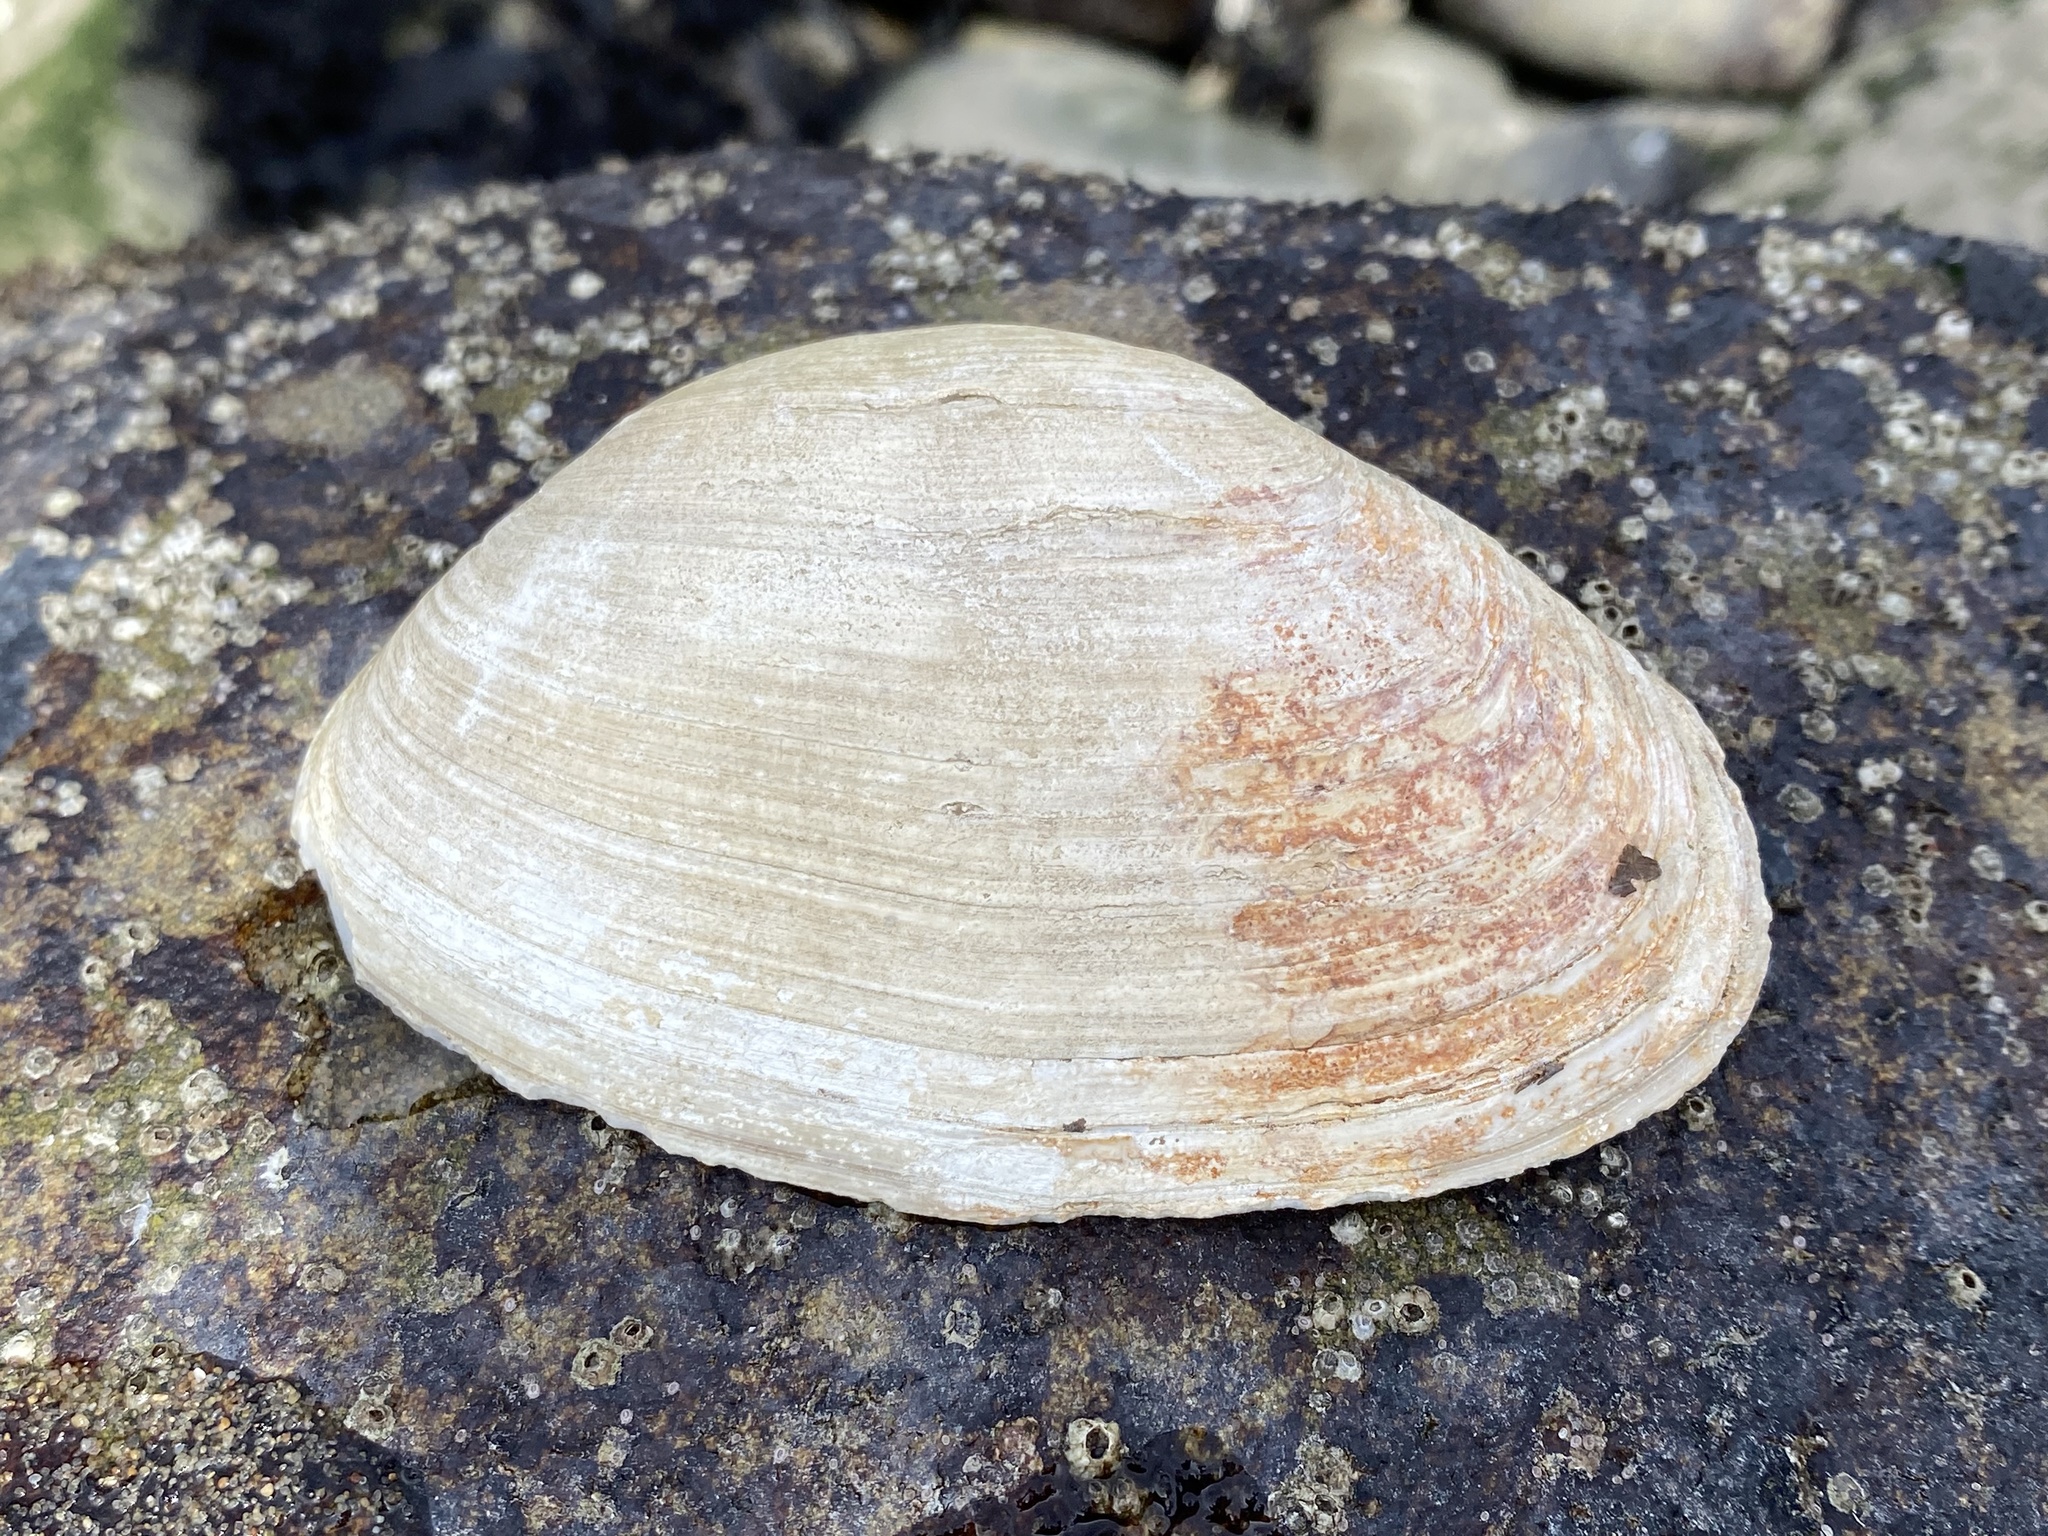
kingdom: Animalia
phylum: Mollusca
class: Bivalvia
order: Venerida
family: Mactridae
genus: Tresus
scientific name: Tresus nuttallii
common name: Pacific gaper clam
